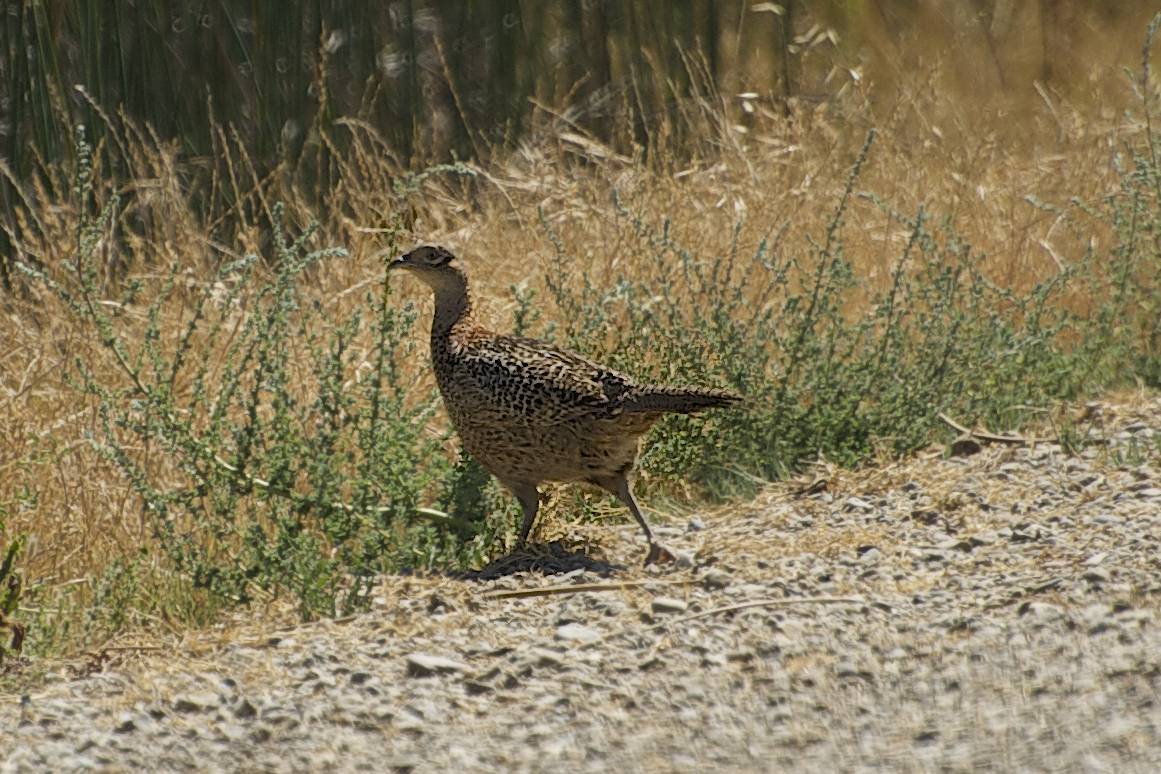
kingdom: Animalia
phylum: Chordata
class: Aves
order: Galliformes
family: Phasianidae
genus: Phasianus
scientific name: Phasianus colchicus
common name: Common pheasant
